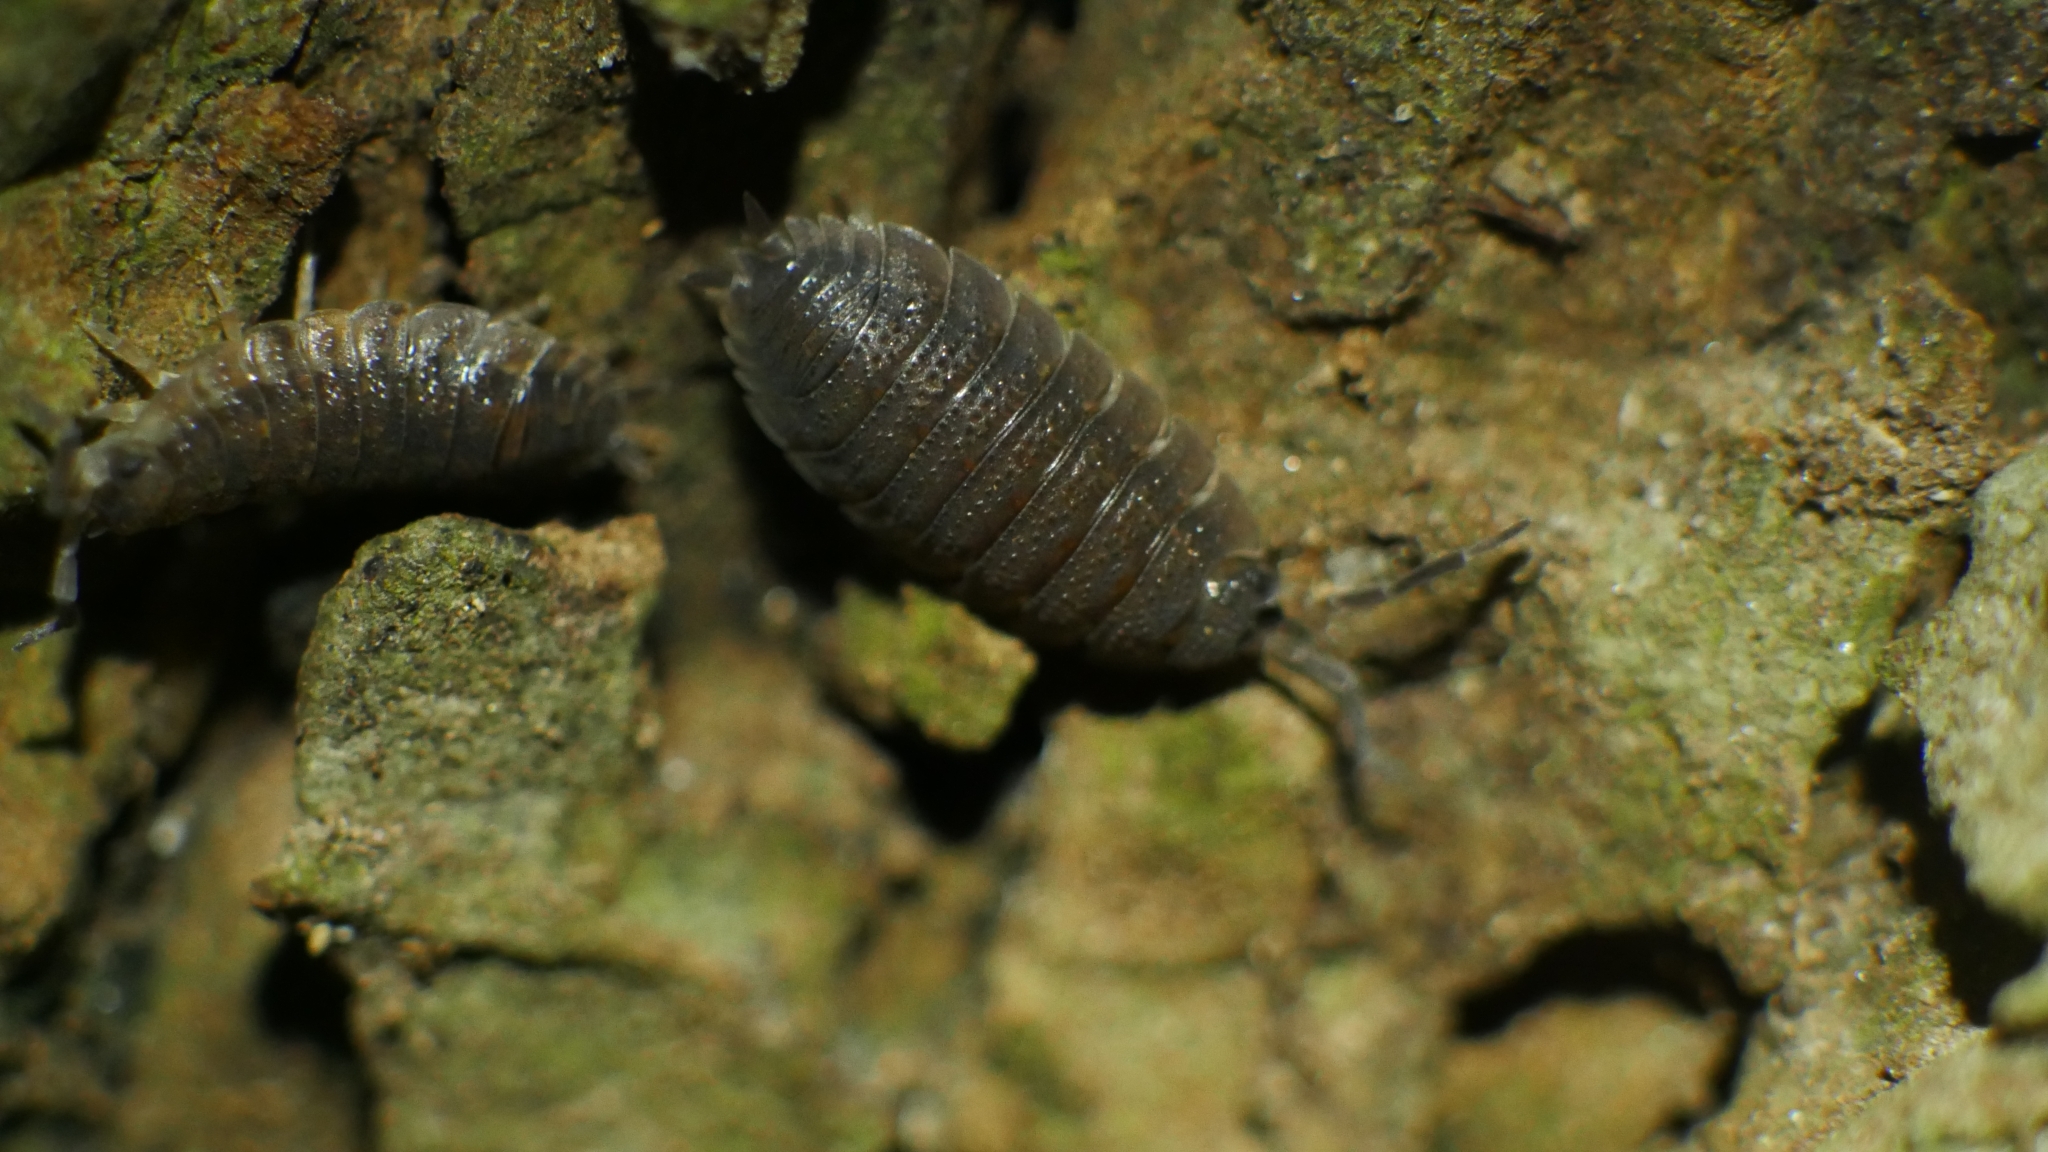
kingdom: Animalia
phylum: Arthropoda
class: Malacostraca
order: Isopoda
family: Porcellionidae
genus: Porcellio
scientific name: Porcellio scaber
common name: Common rough woodlouse
